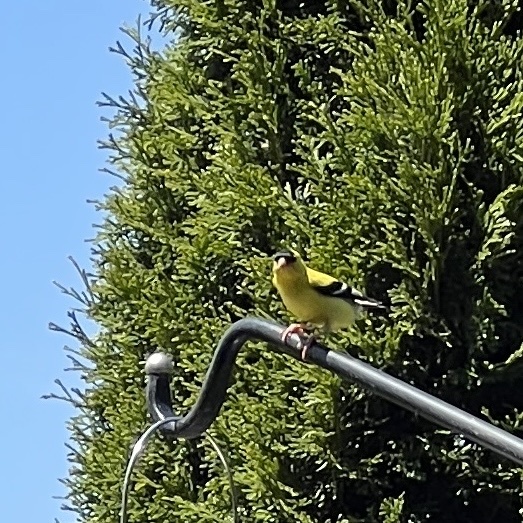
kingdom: Animalia
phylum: Chordata
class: Aves
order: Passeriformes
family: Fringillidae
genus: Spinus
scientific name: Spinus tristis
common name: American goldfinch
